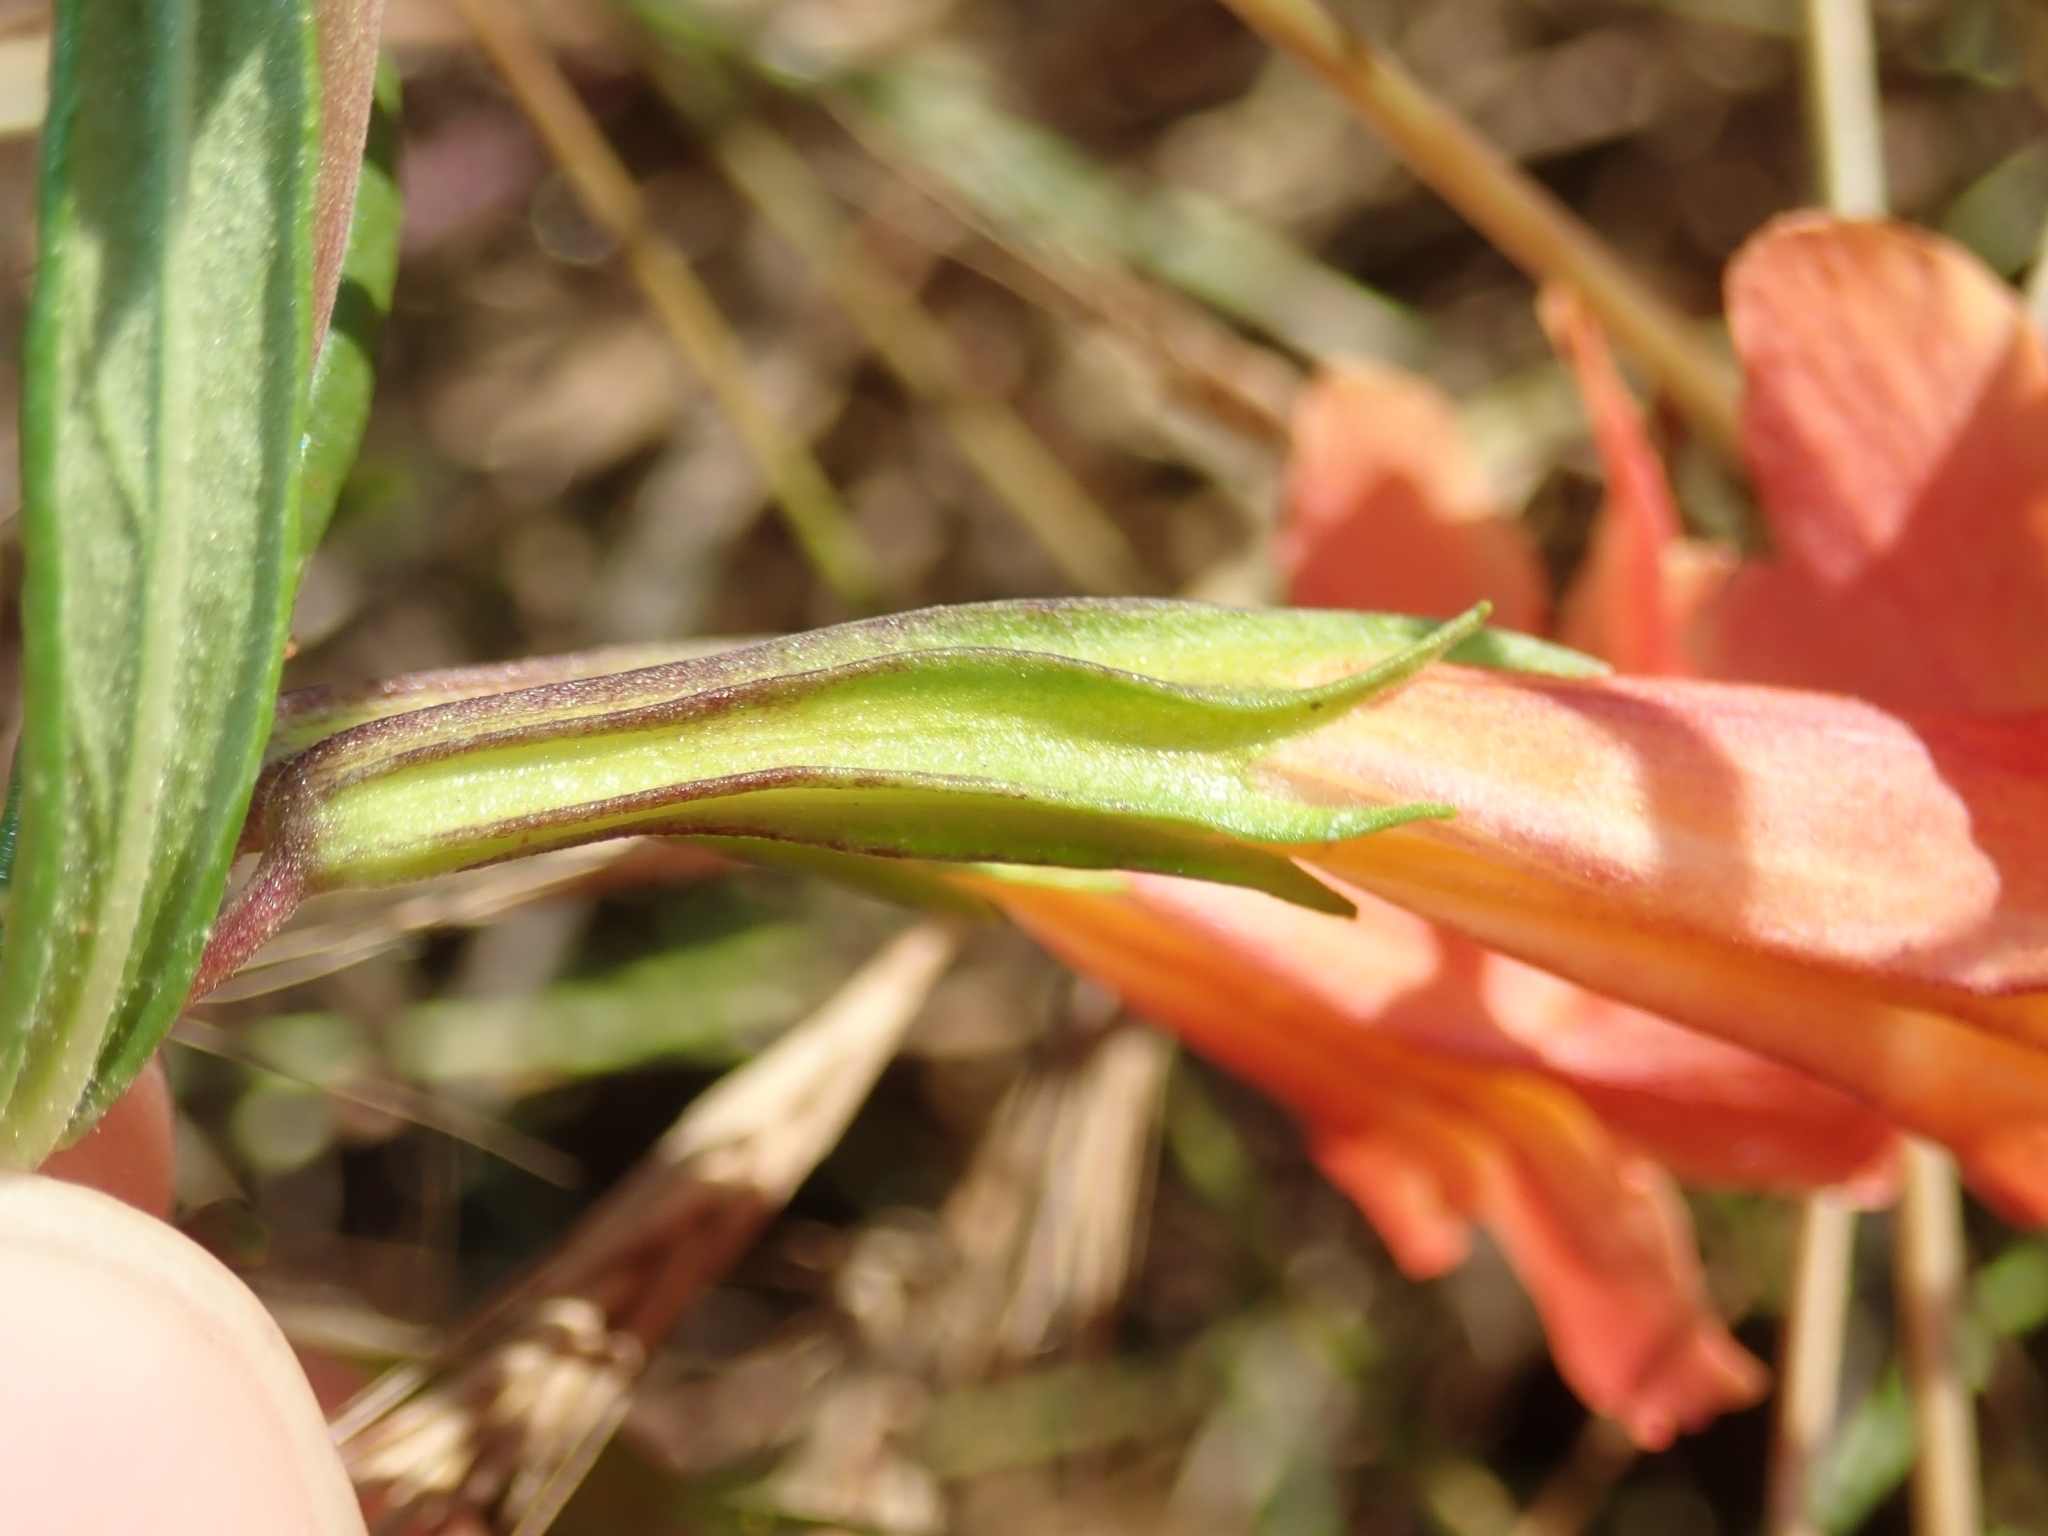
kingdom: Plantae
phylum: Tracheophyta
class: Magnoliopsida
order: Lamiales
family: Phrymaceae
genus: Diplacus
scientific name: Diplacus australis
